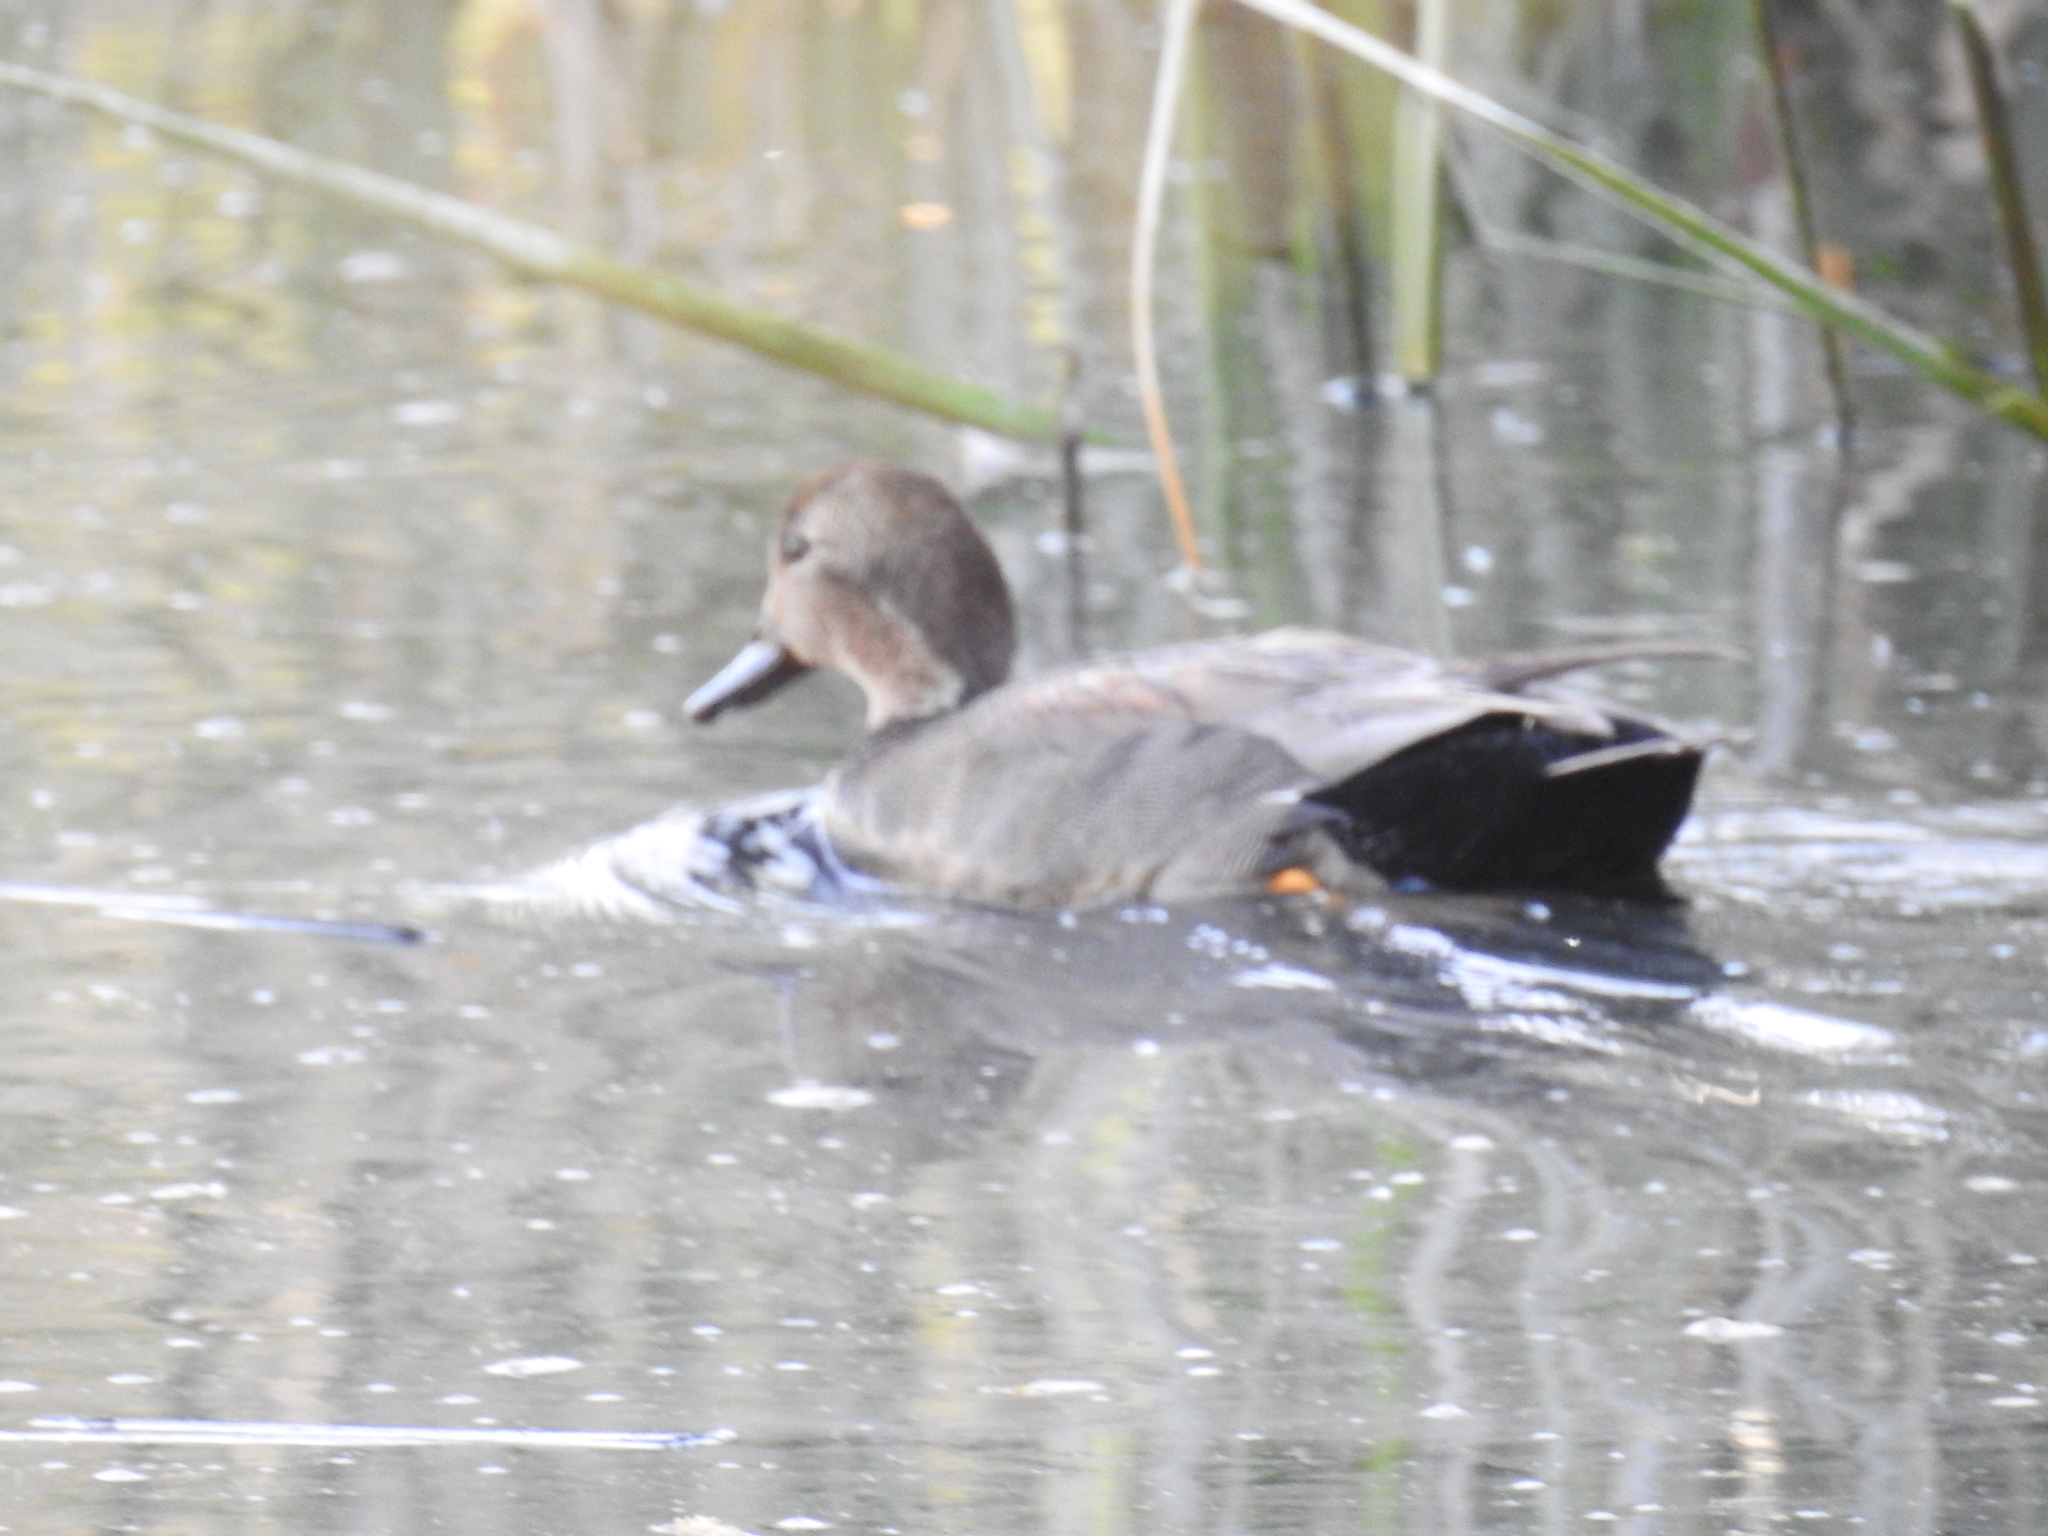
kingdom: Animalia
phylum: Chordata
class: Aves
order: Anseriformes
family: Anatidae
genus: Mareca
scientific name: Mareca strepera
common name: Gadwall
